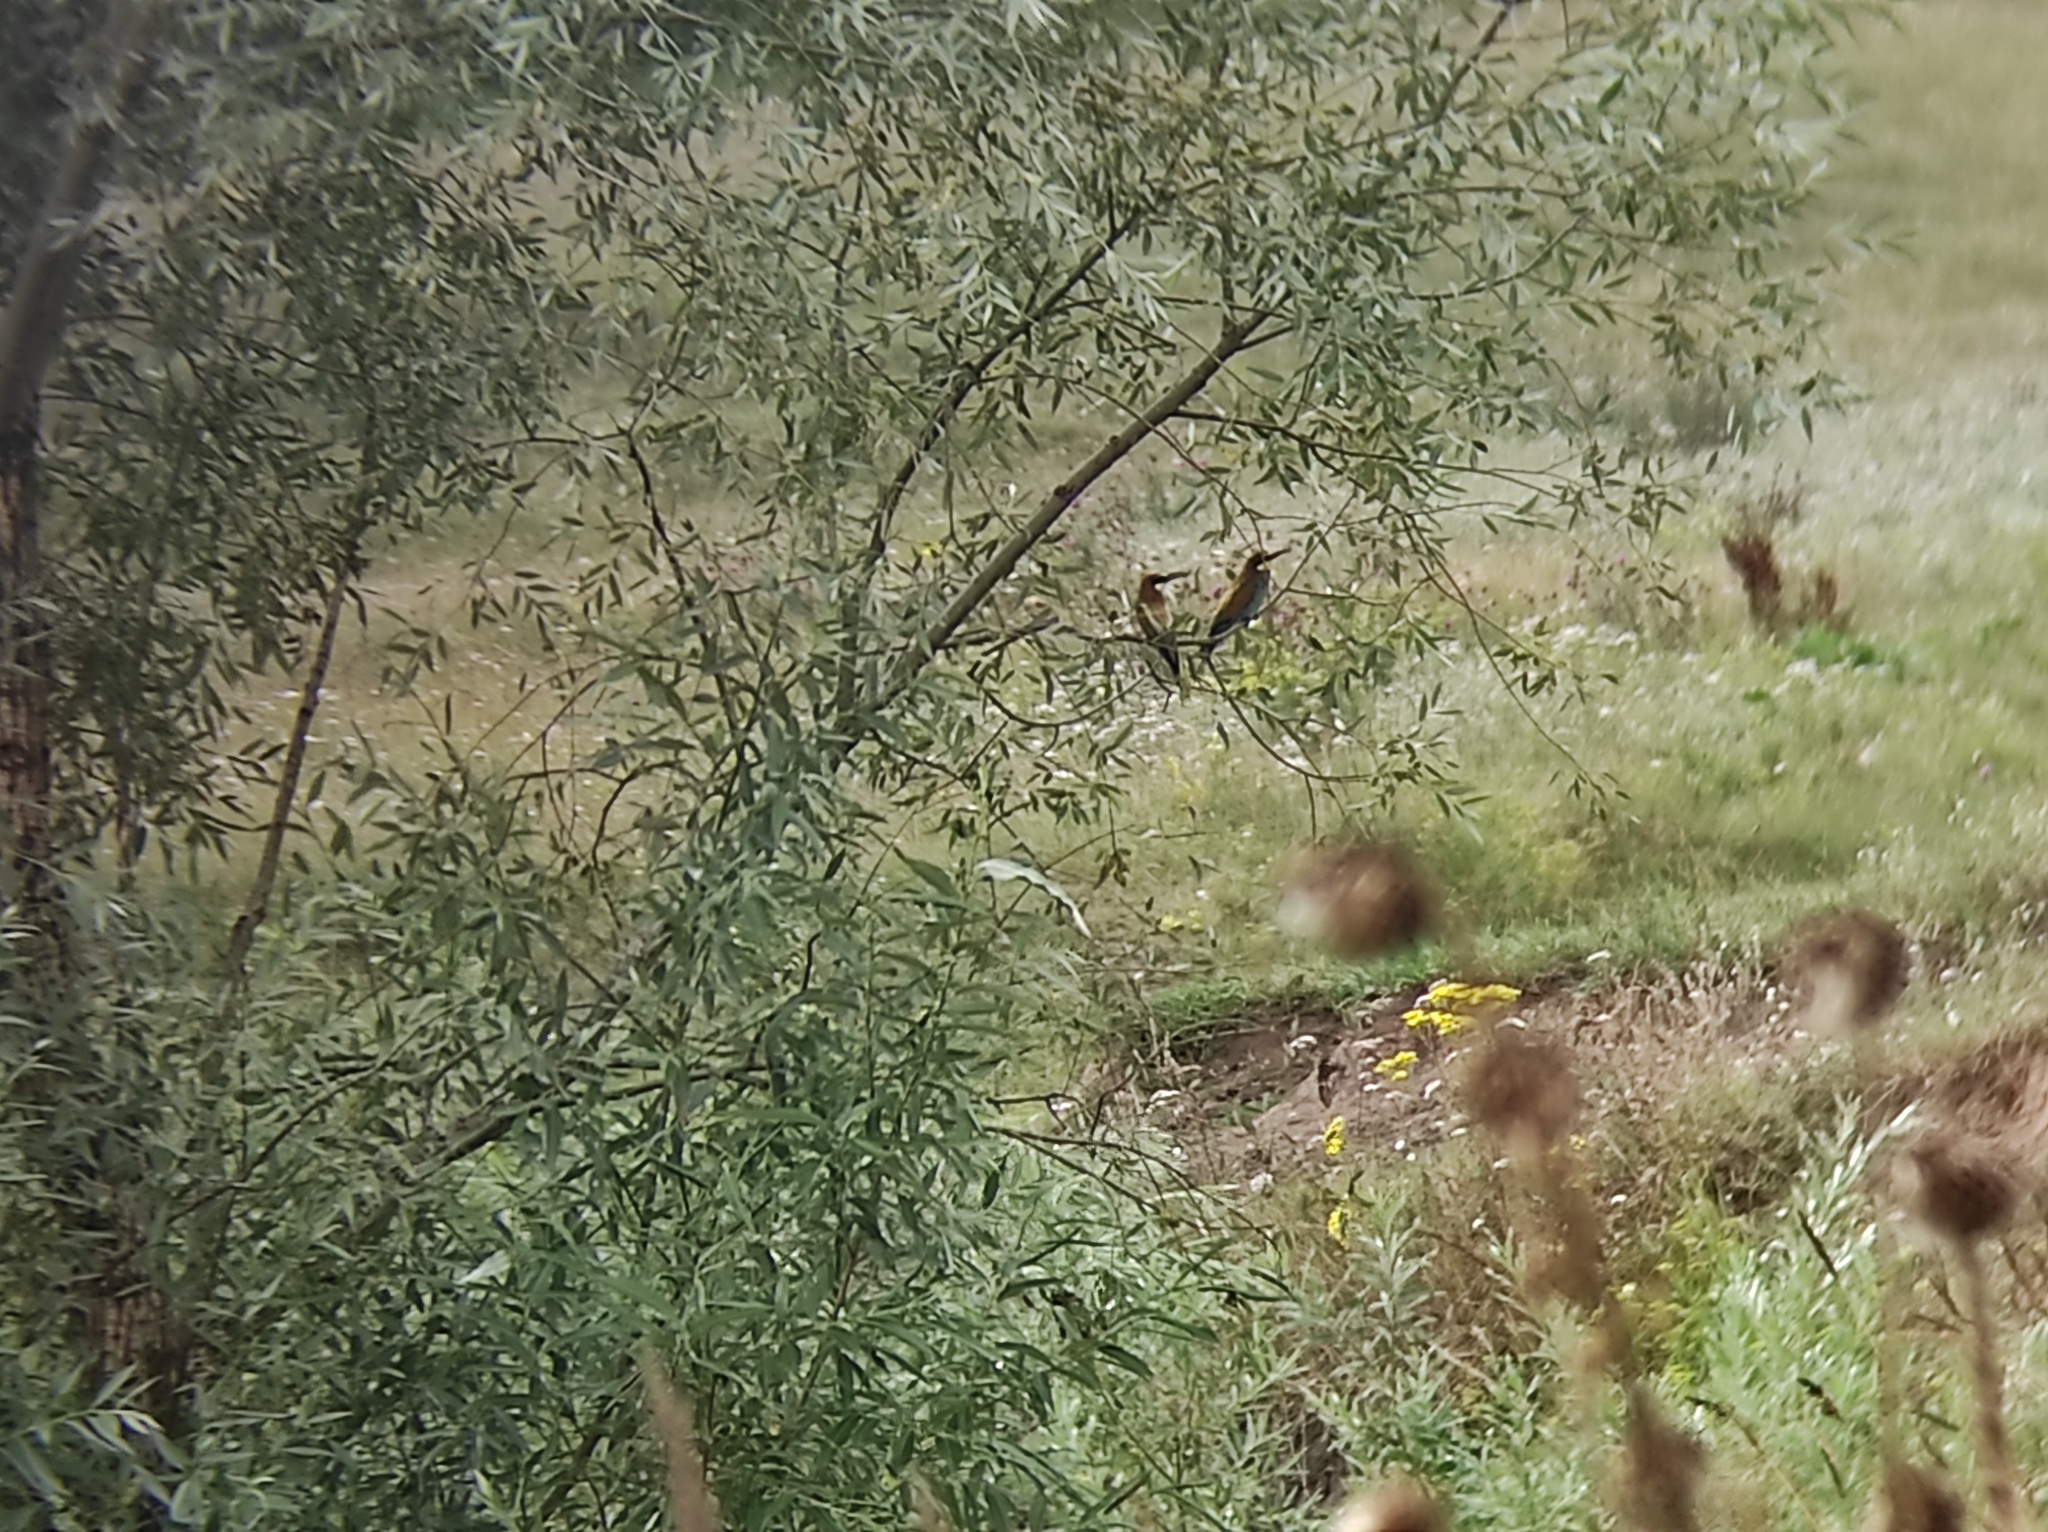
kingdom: Animalia
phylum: Chordata
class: Aves
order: Coraciiformes
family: Meropidae
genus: Merops
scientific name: Merops apiaster
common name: European bee-eater
